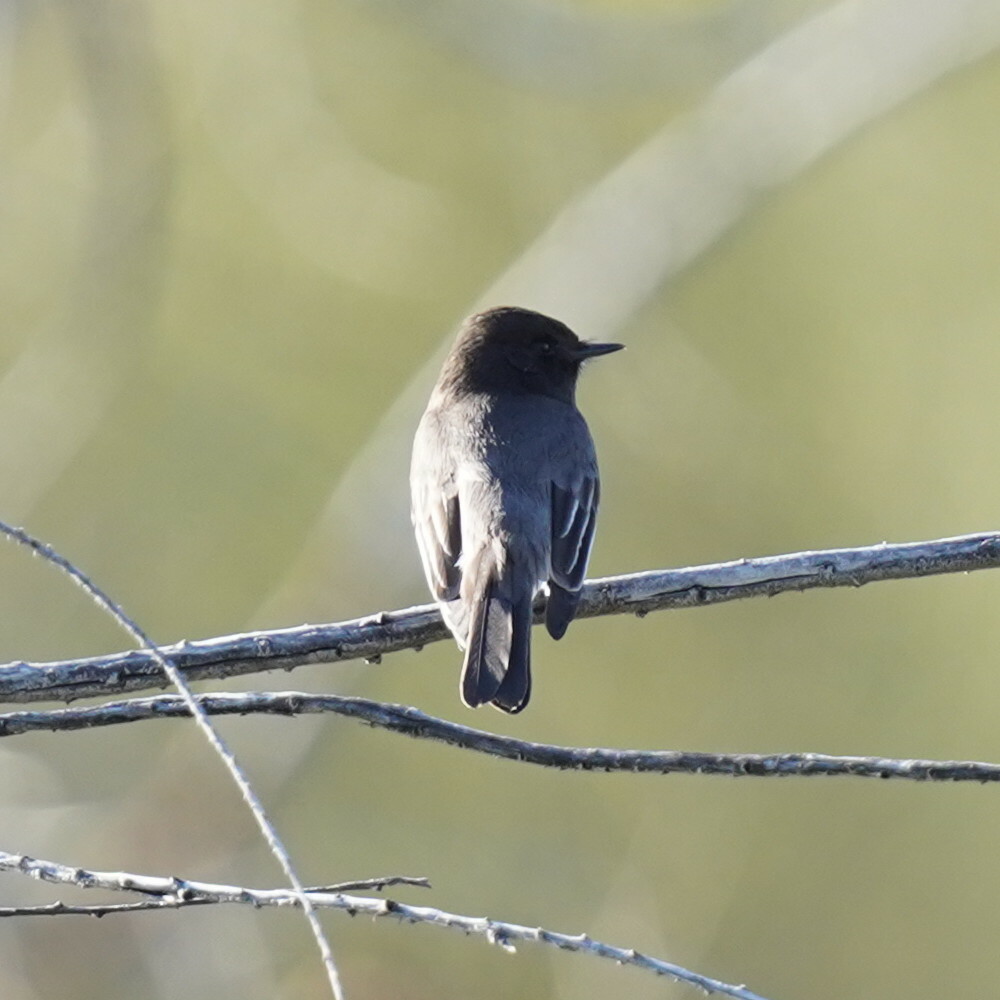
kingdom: Animalia
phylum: Chordata
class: Aves
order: Passeriformes
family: Tyrannidae
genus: Sayornis
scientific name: Sayornis nigricans
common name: Black phoebe
